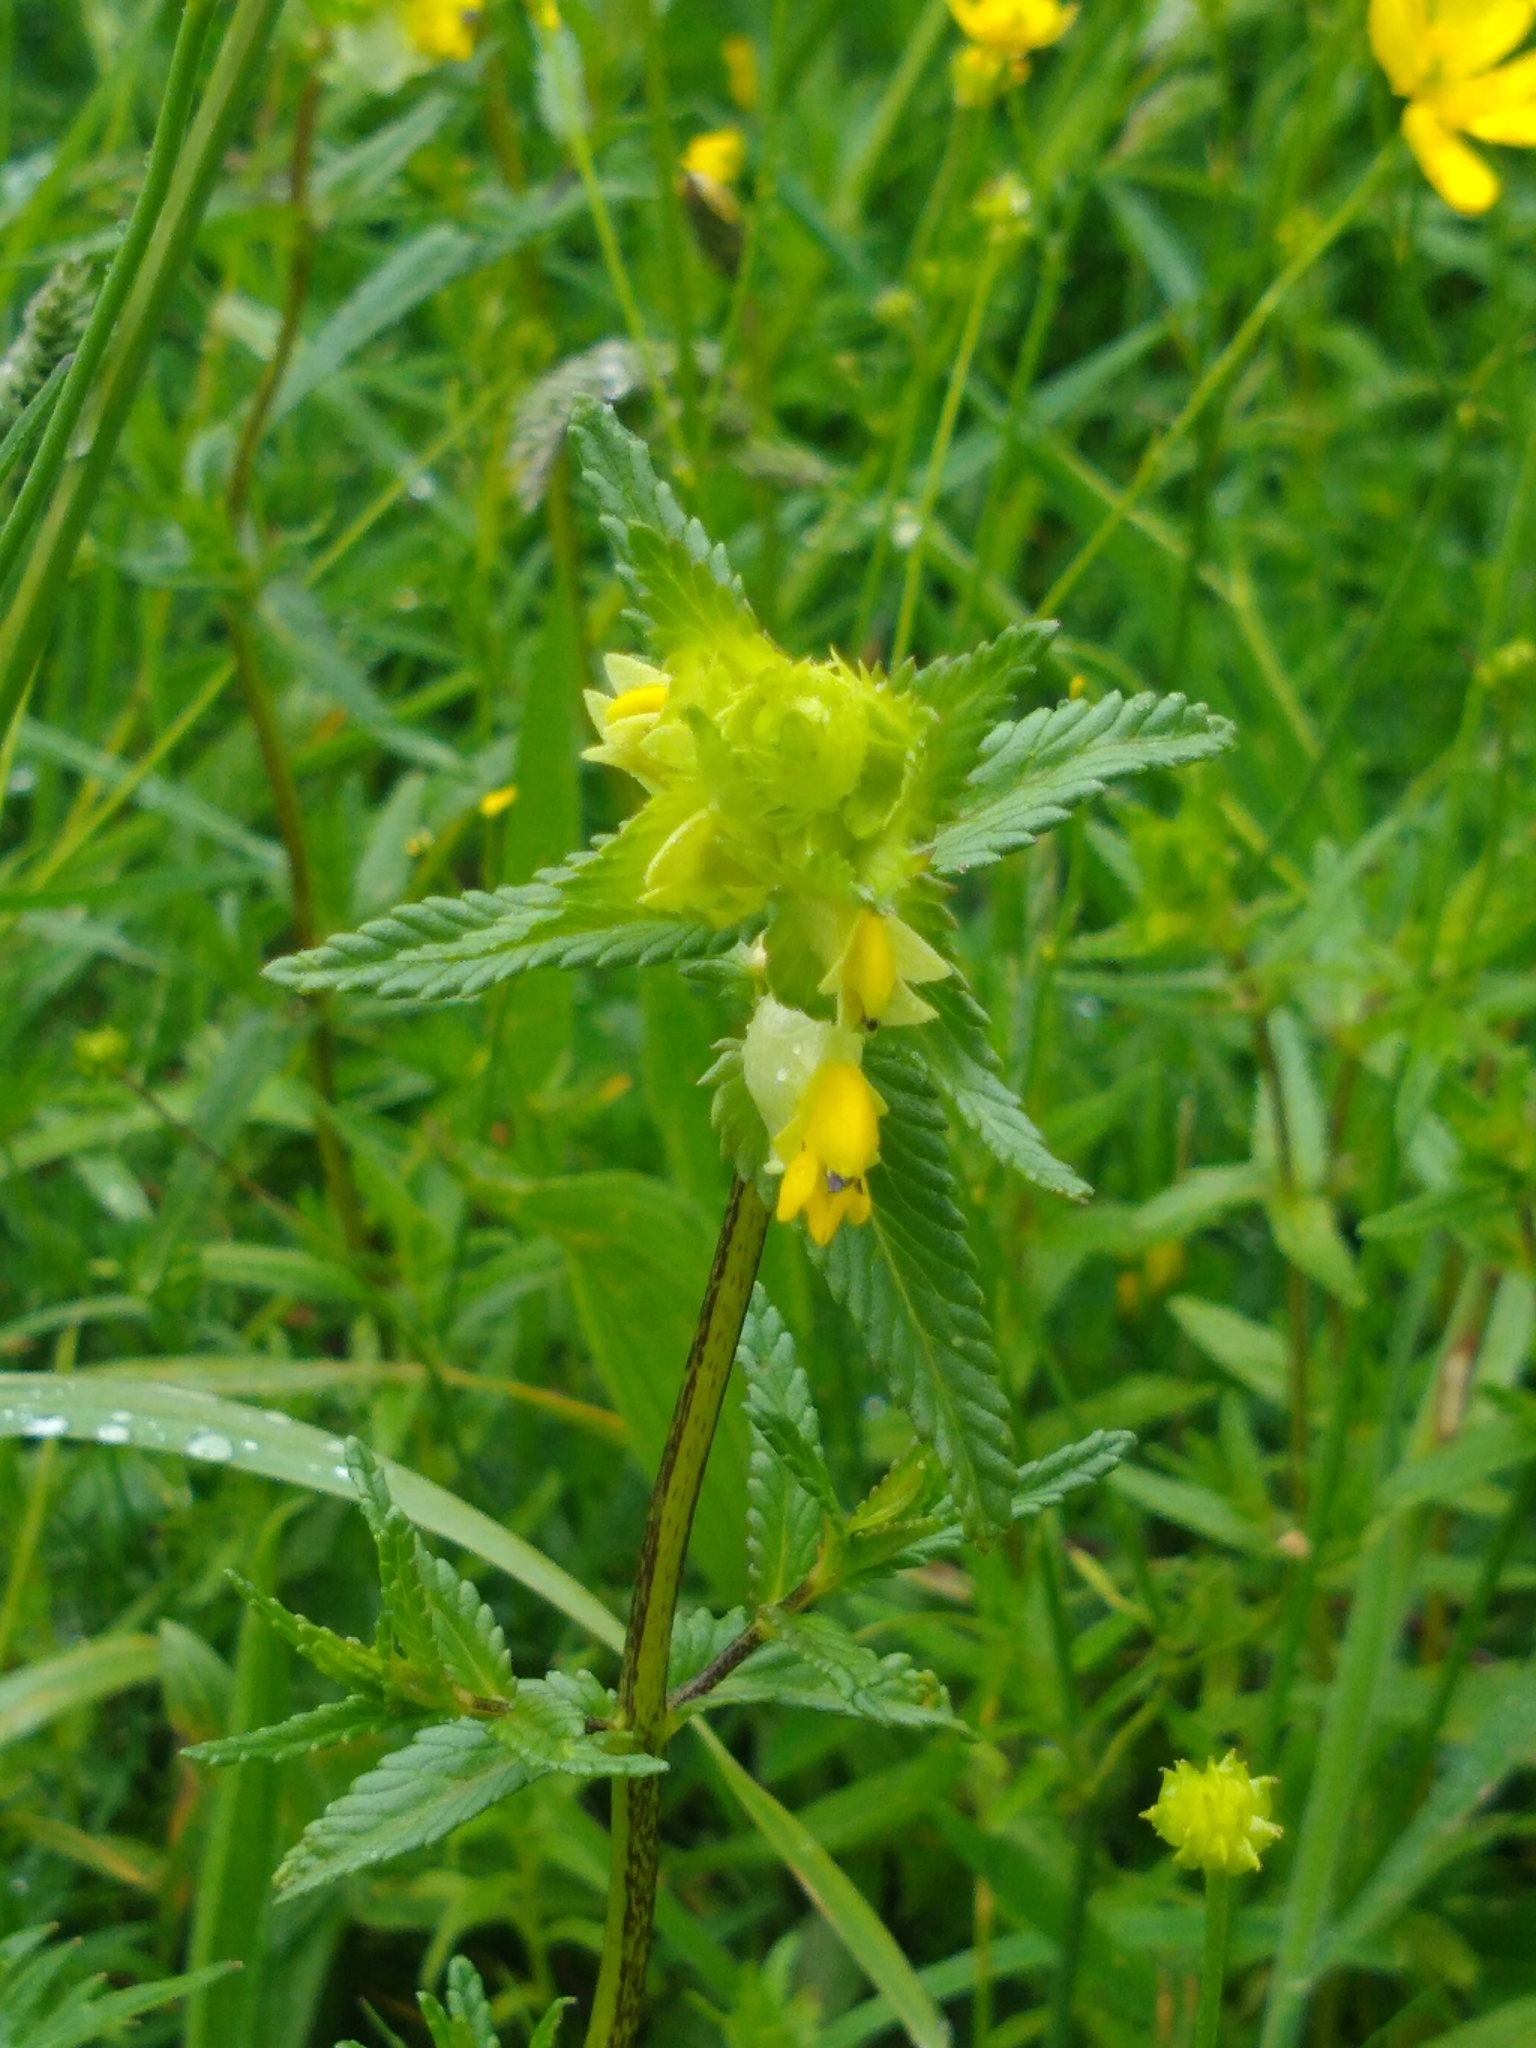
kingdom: Plantae
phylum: Tracheophyta
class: Magnoliopsida
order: Lamiales
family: Orobanchaceae
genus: Rhinanthus
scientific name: Rhinanthus minor
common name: Yellow-rattle
